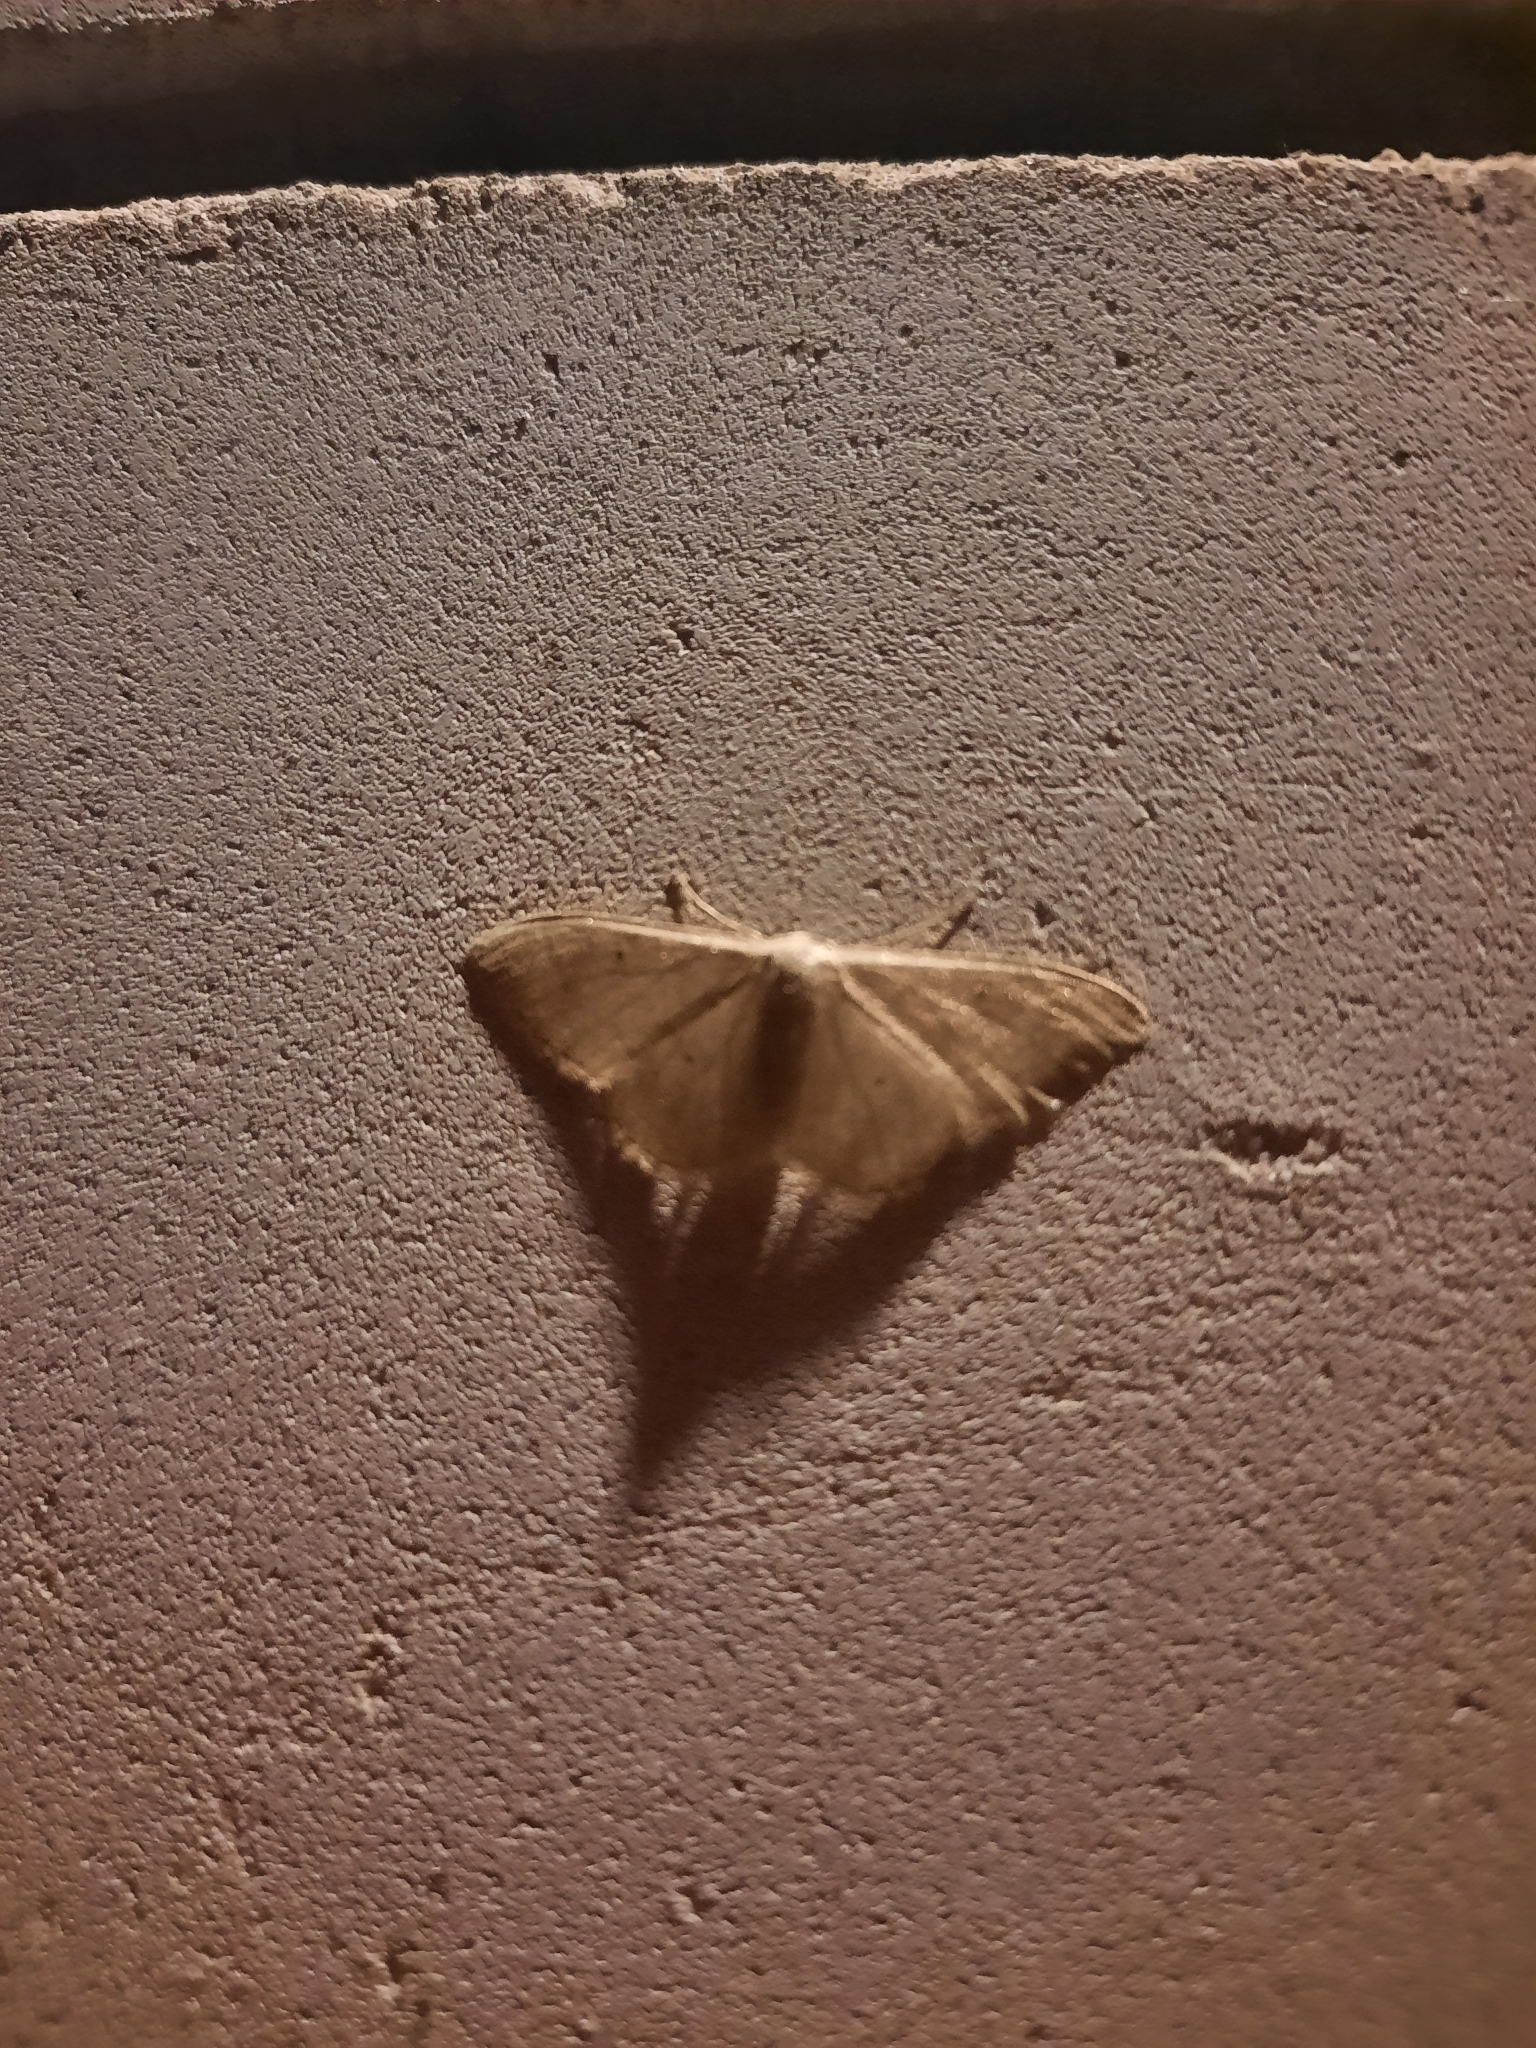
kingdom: Animalia
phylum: Arthropoda
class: Insecta
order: Lepidoptera
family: Geometridae
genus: Idaea
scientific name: Idaea straminata
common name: Plain wave
